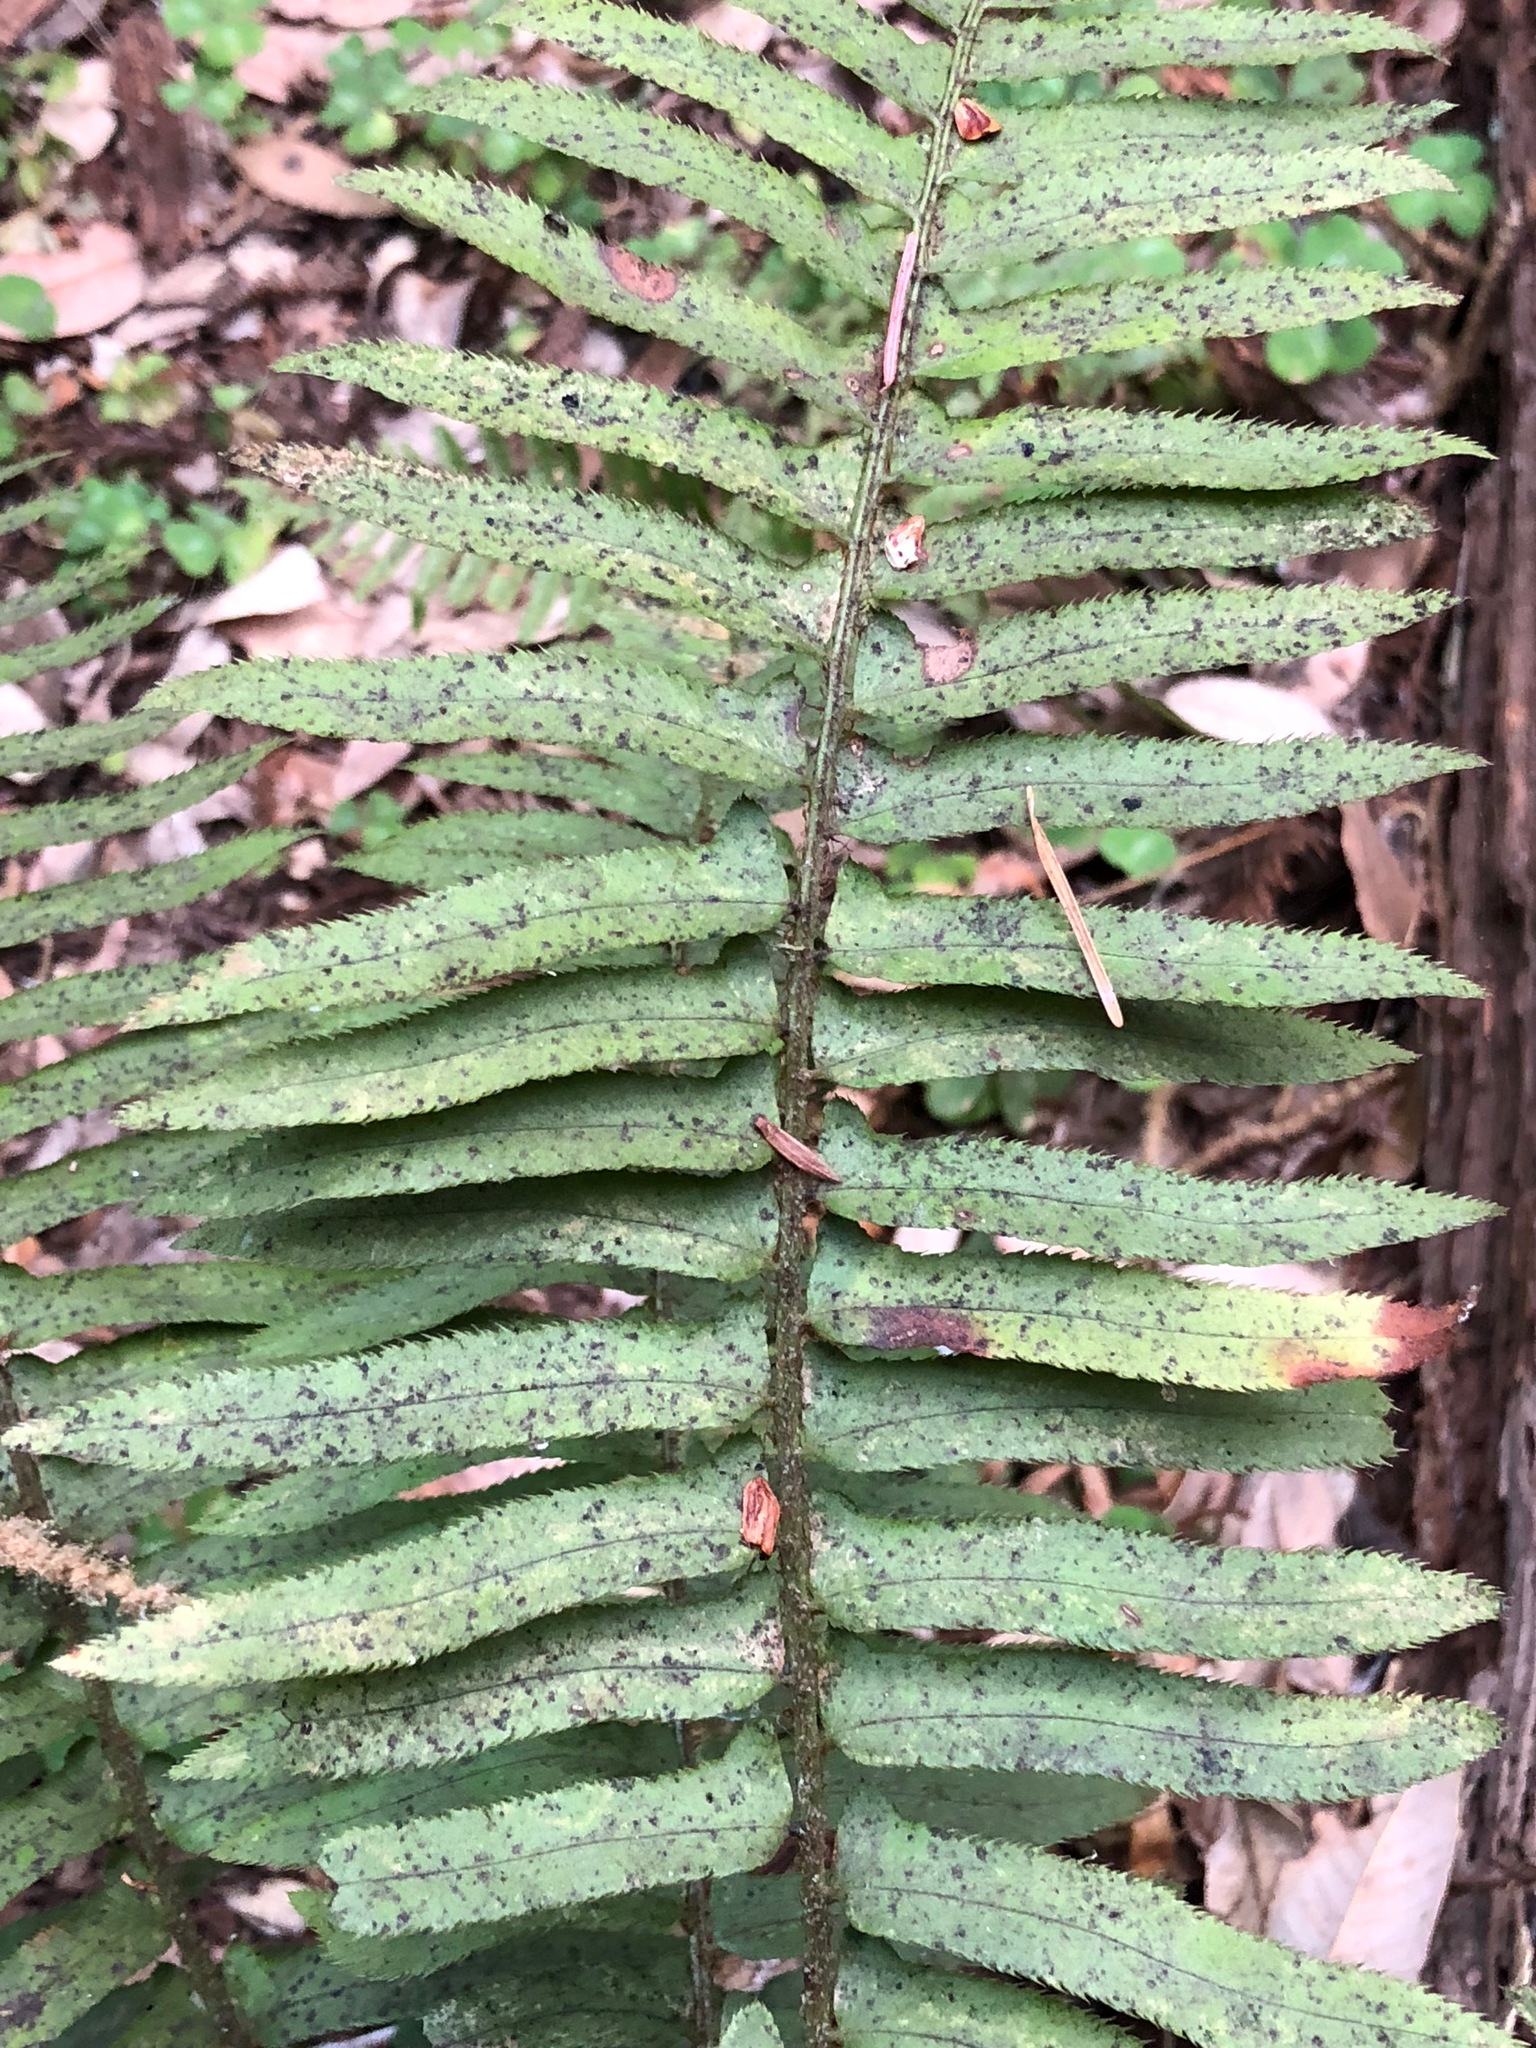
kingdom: Plantae
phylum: Tracheophyta
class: Polypodiopsida
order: Polypodiales
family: Dryopteridaceae
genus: Polystichum
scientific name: Polystichum munitum
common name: Western sword-fern
